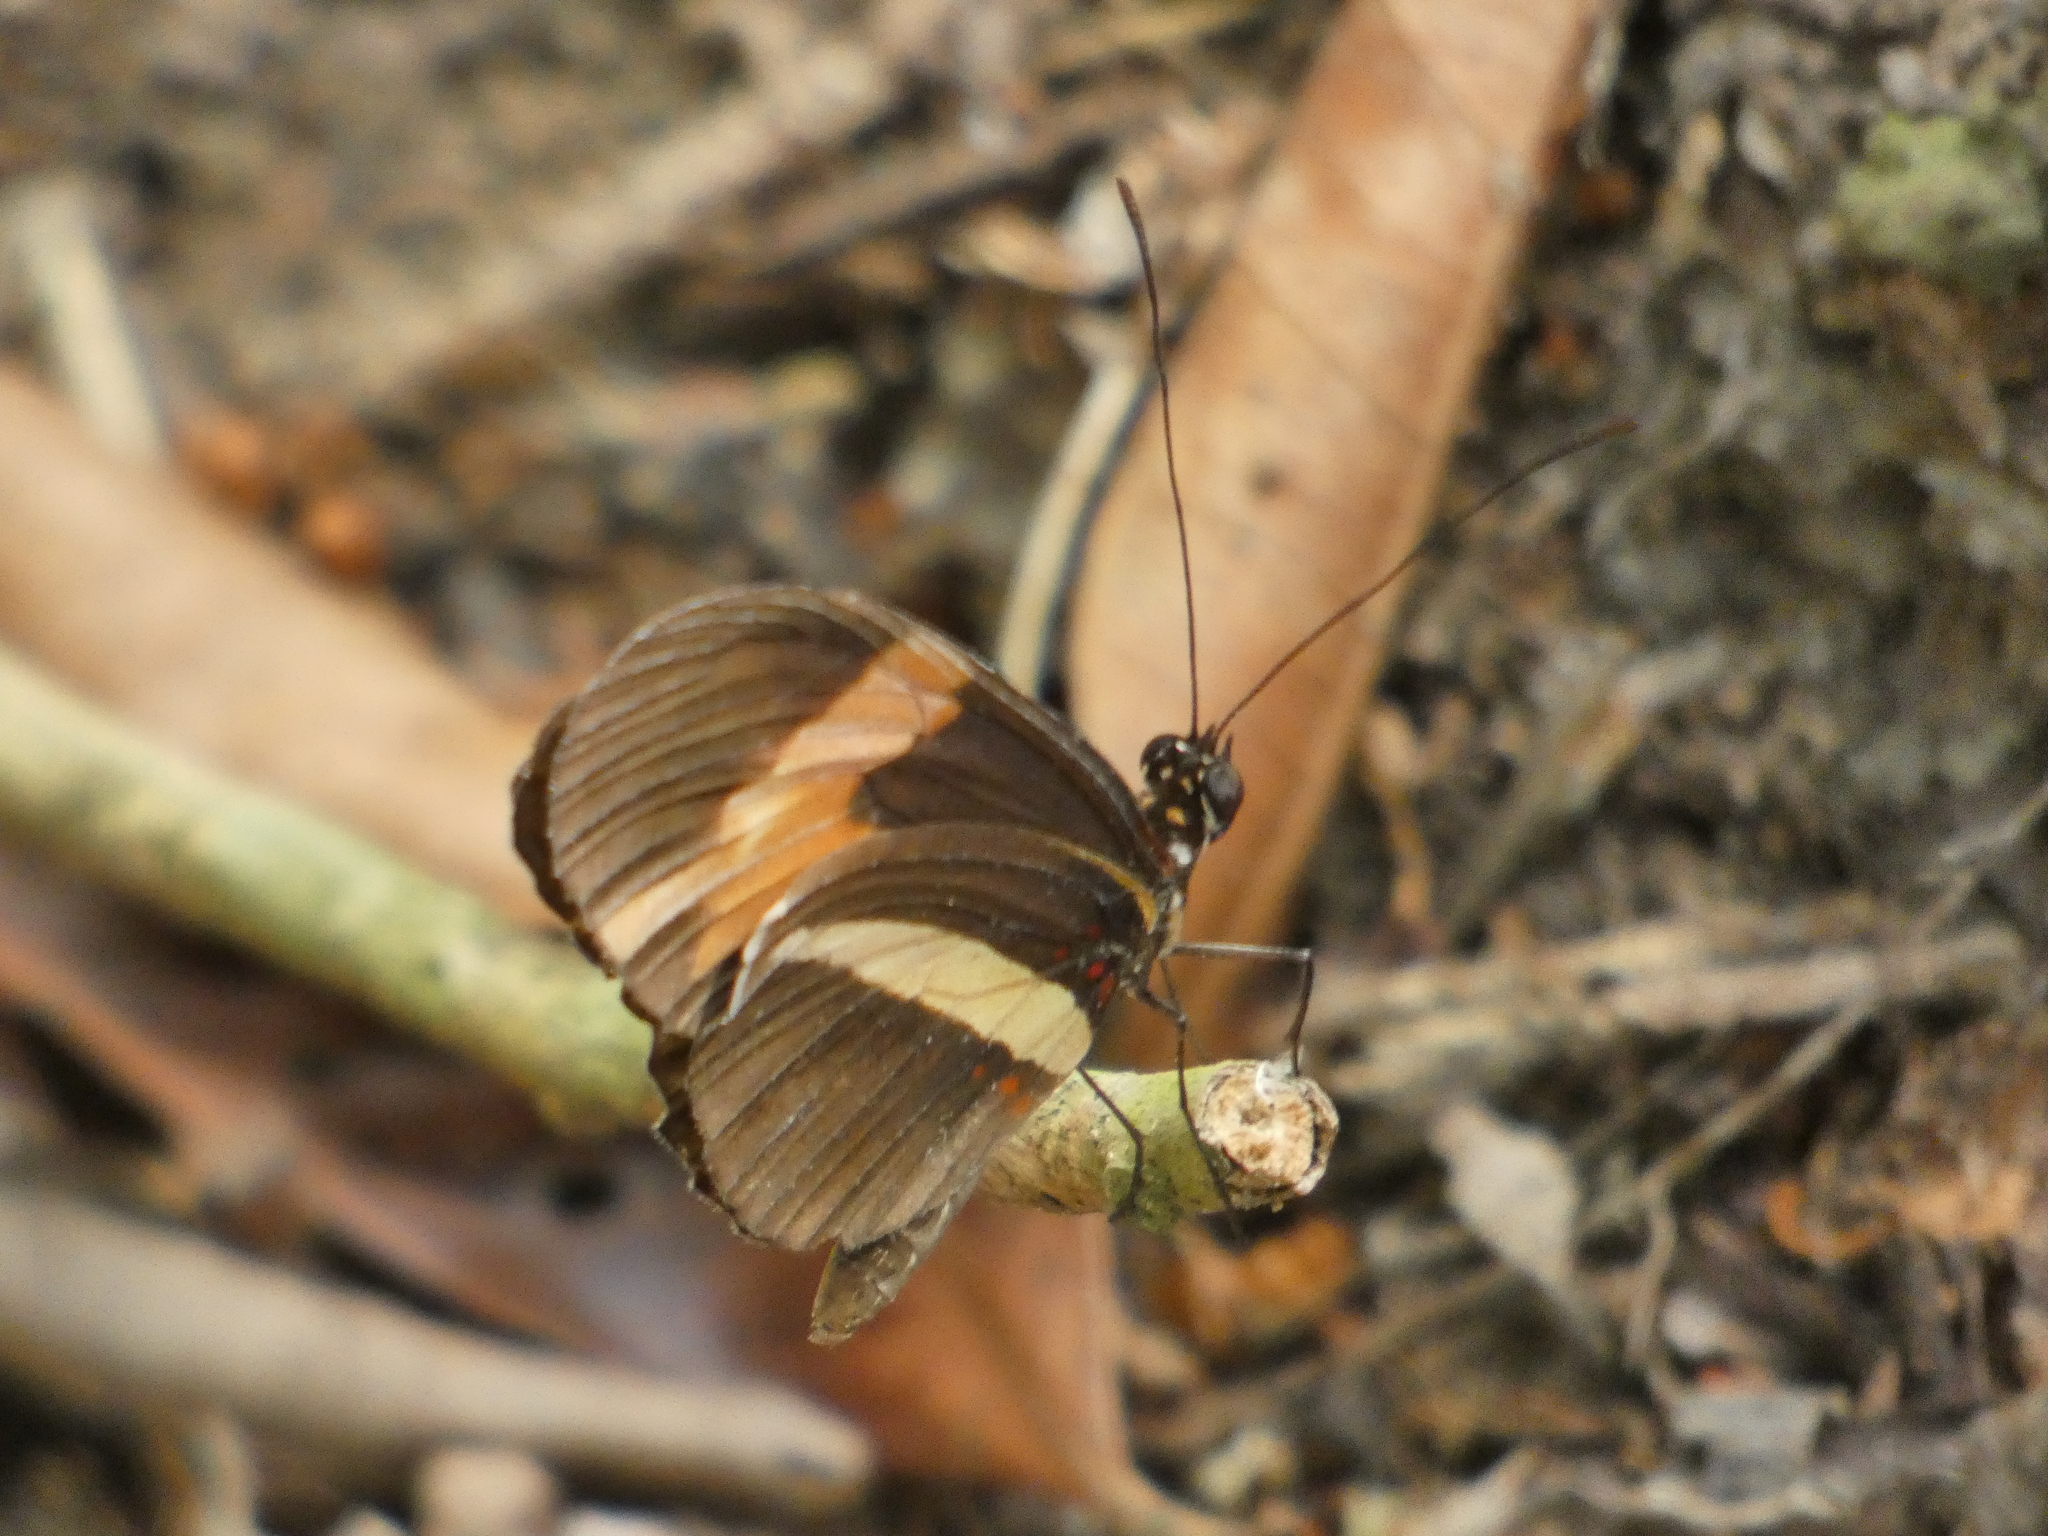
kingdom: Animalia
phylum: Arthropoda
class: Insecta
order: Lepidoptera
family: Nymphalidae
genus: Heliconius
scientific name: Heliconius erato
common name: Common patch longwing
